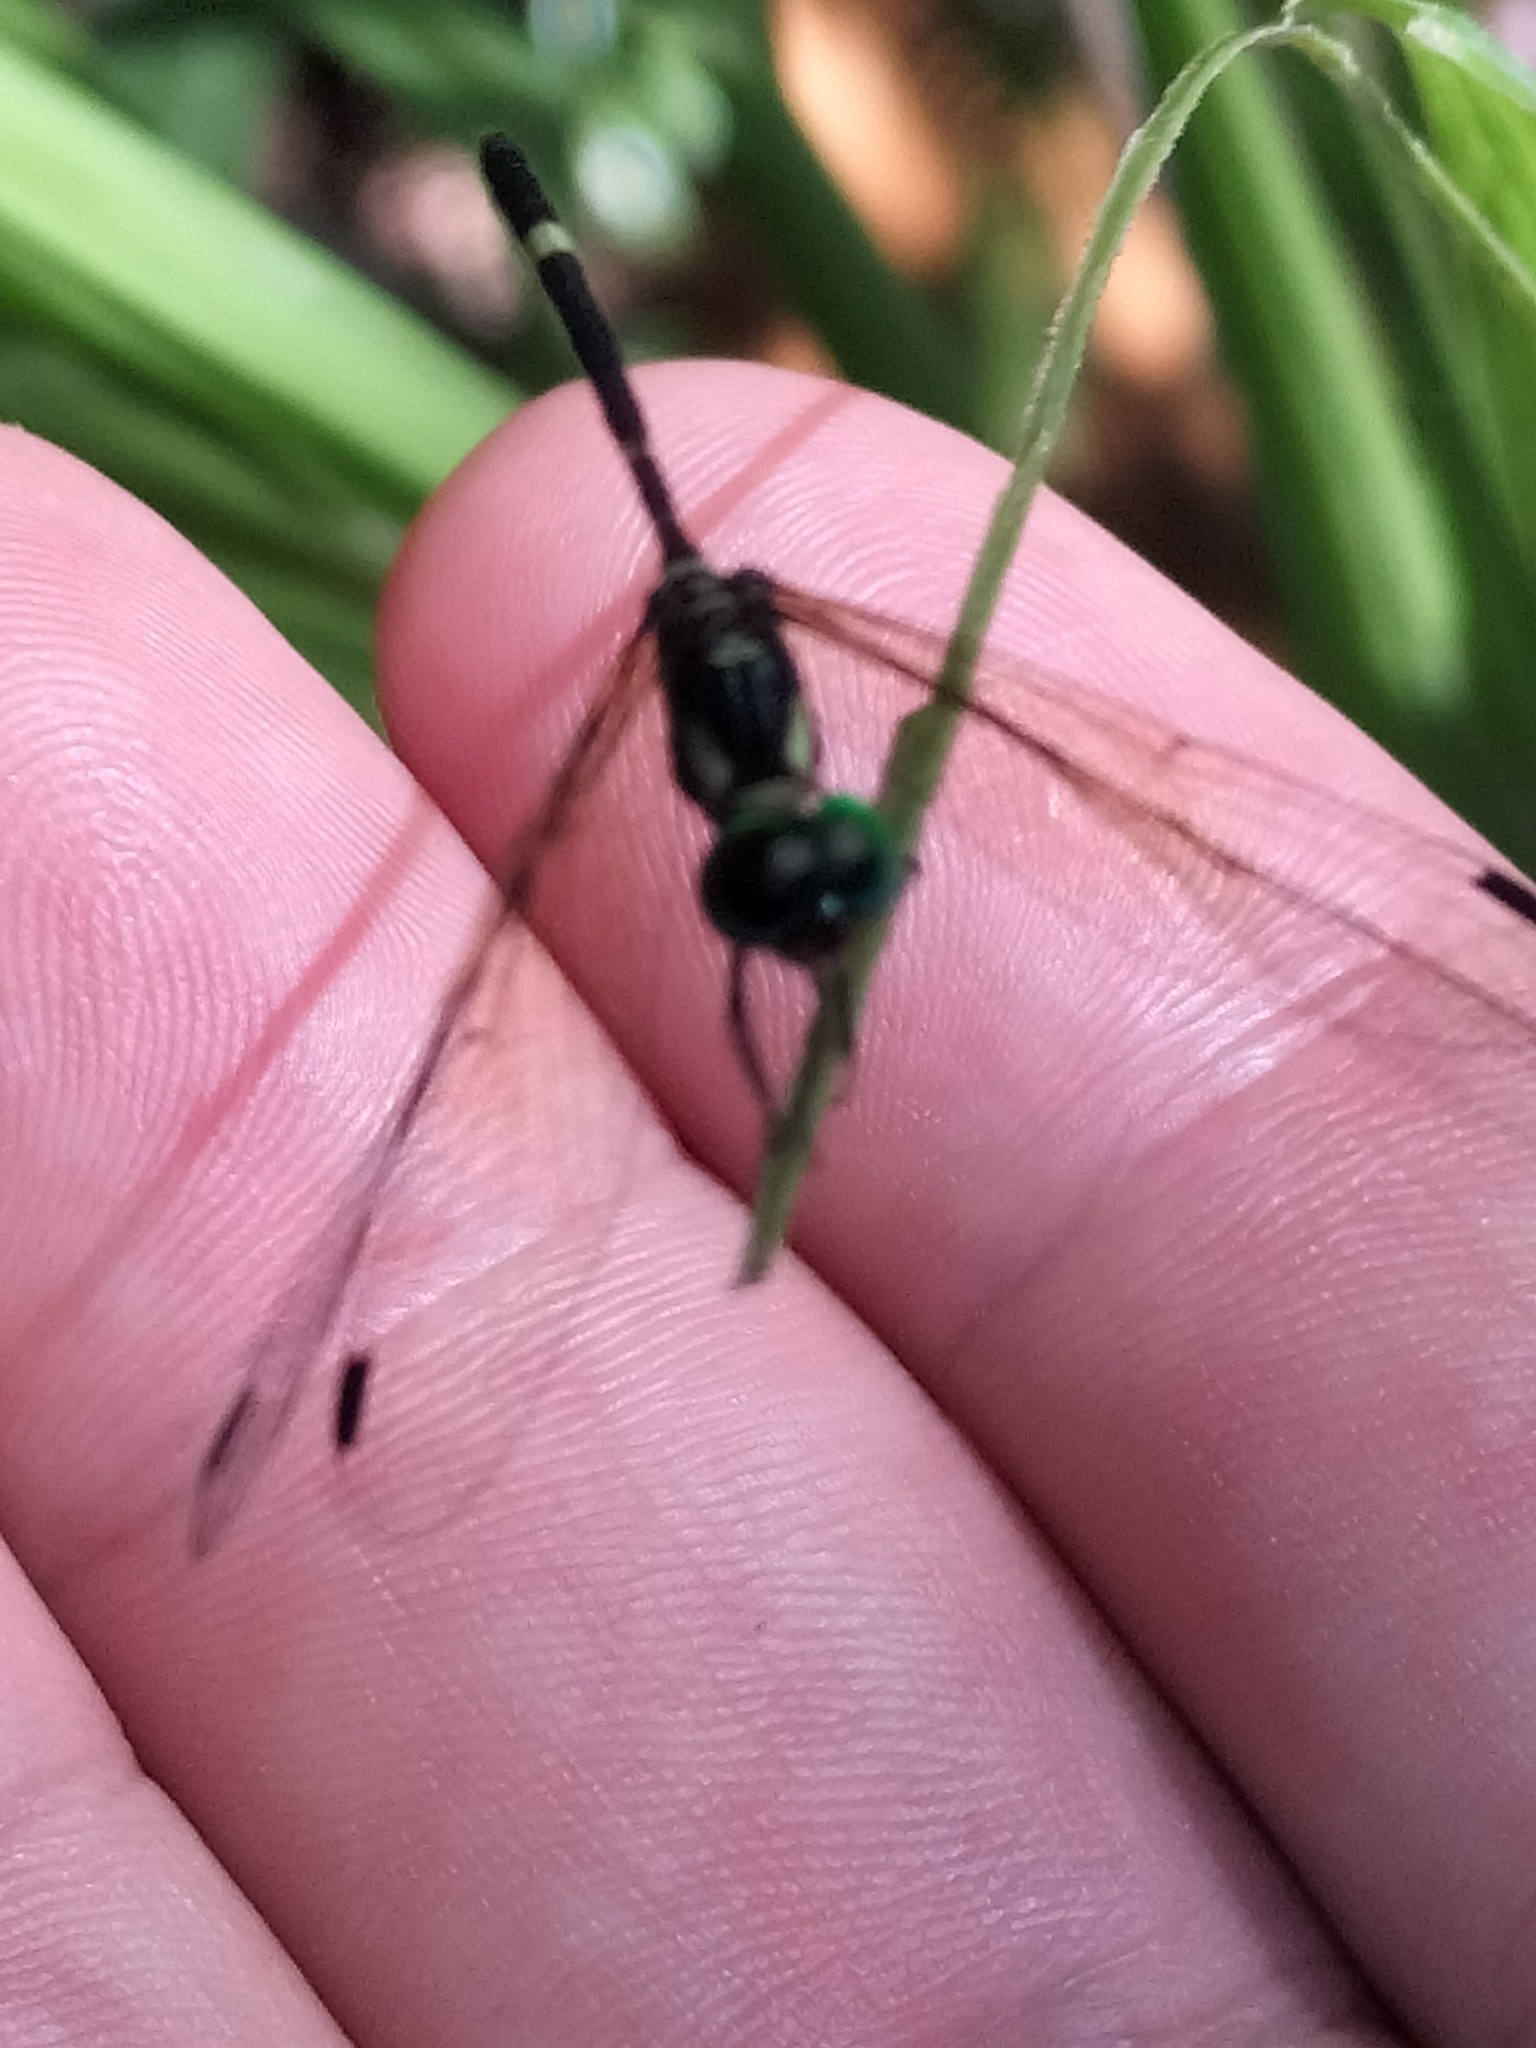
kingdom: Animalia
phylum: Arthropoda
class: Insecta
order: Odonata
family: Libellulidae
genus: Tetrathemis
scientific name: Tetrathemis irregularis
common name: Elf
